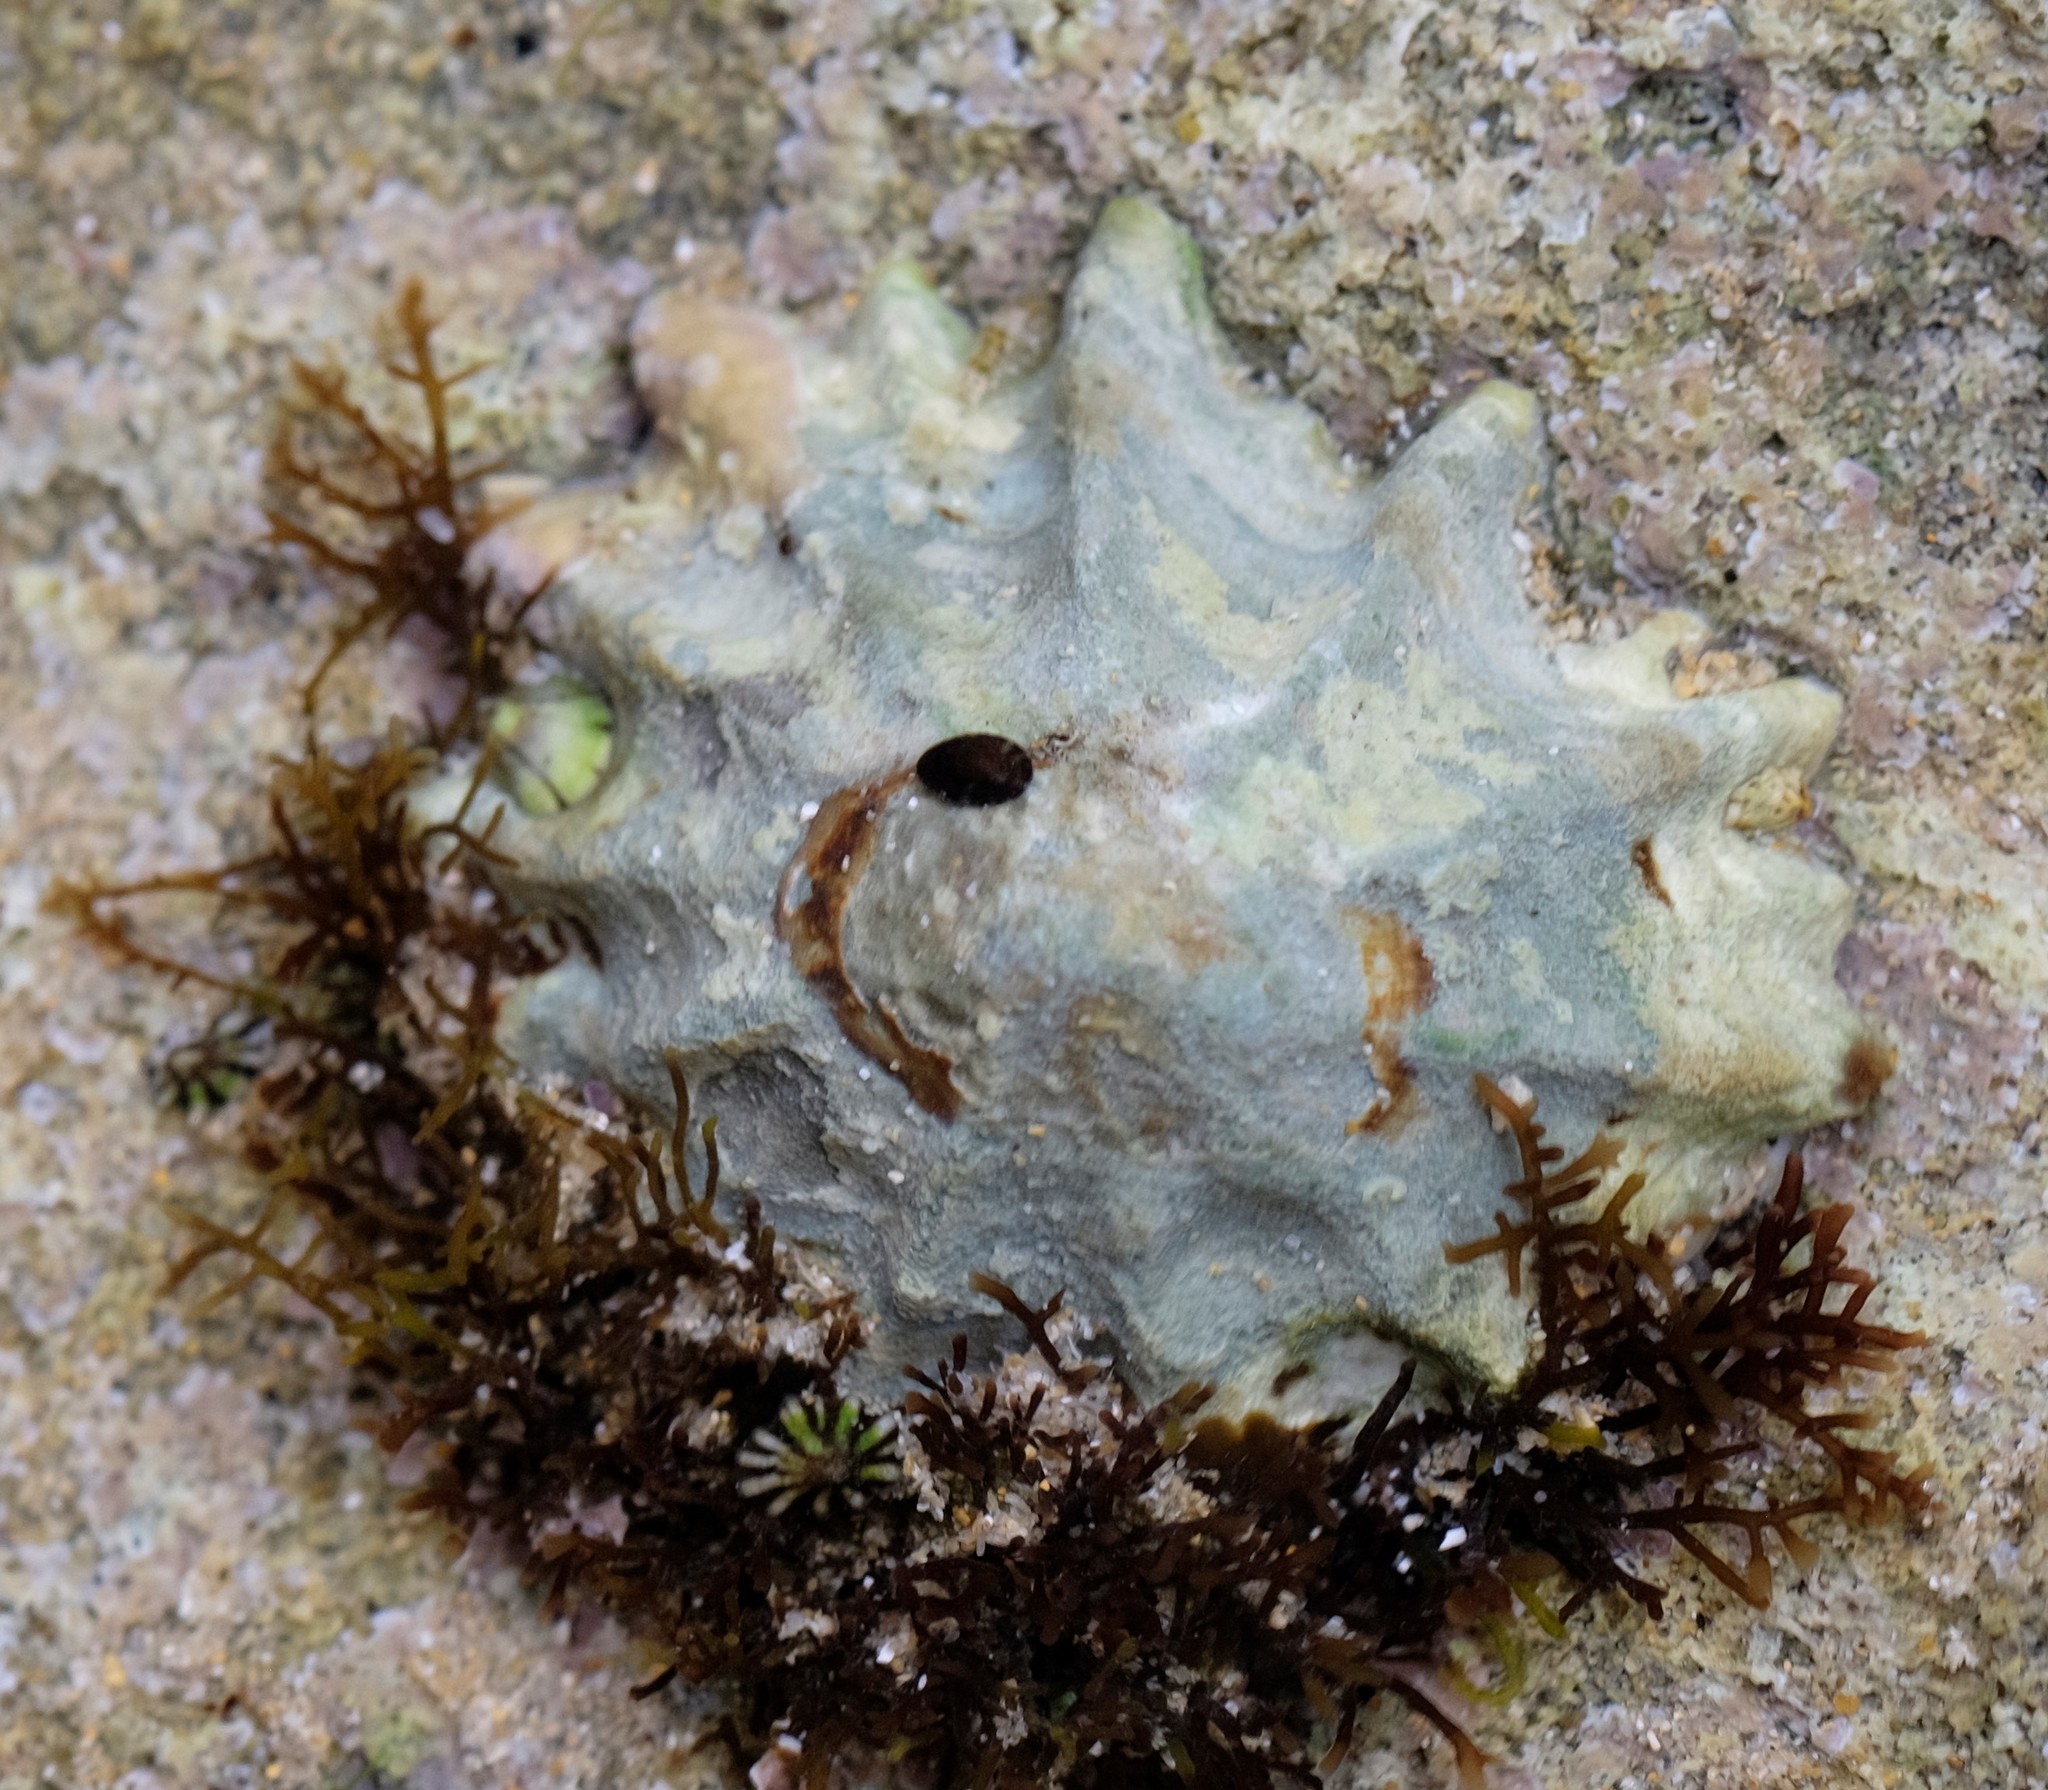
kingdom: Animalia
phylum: Mollusca
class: Gastropoda
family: Lottiidae
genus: Patelloida
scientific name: Patelloida alticostata
